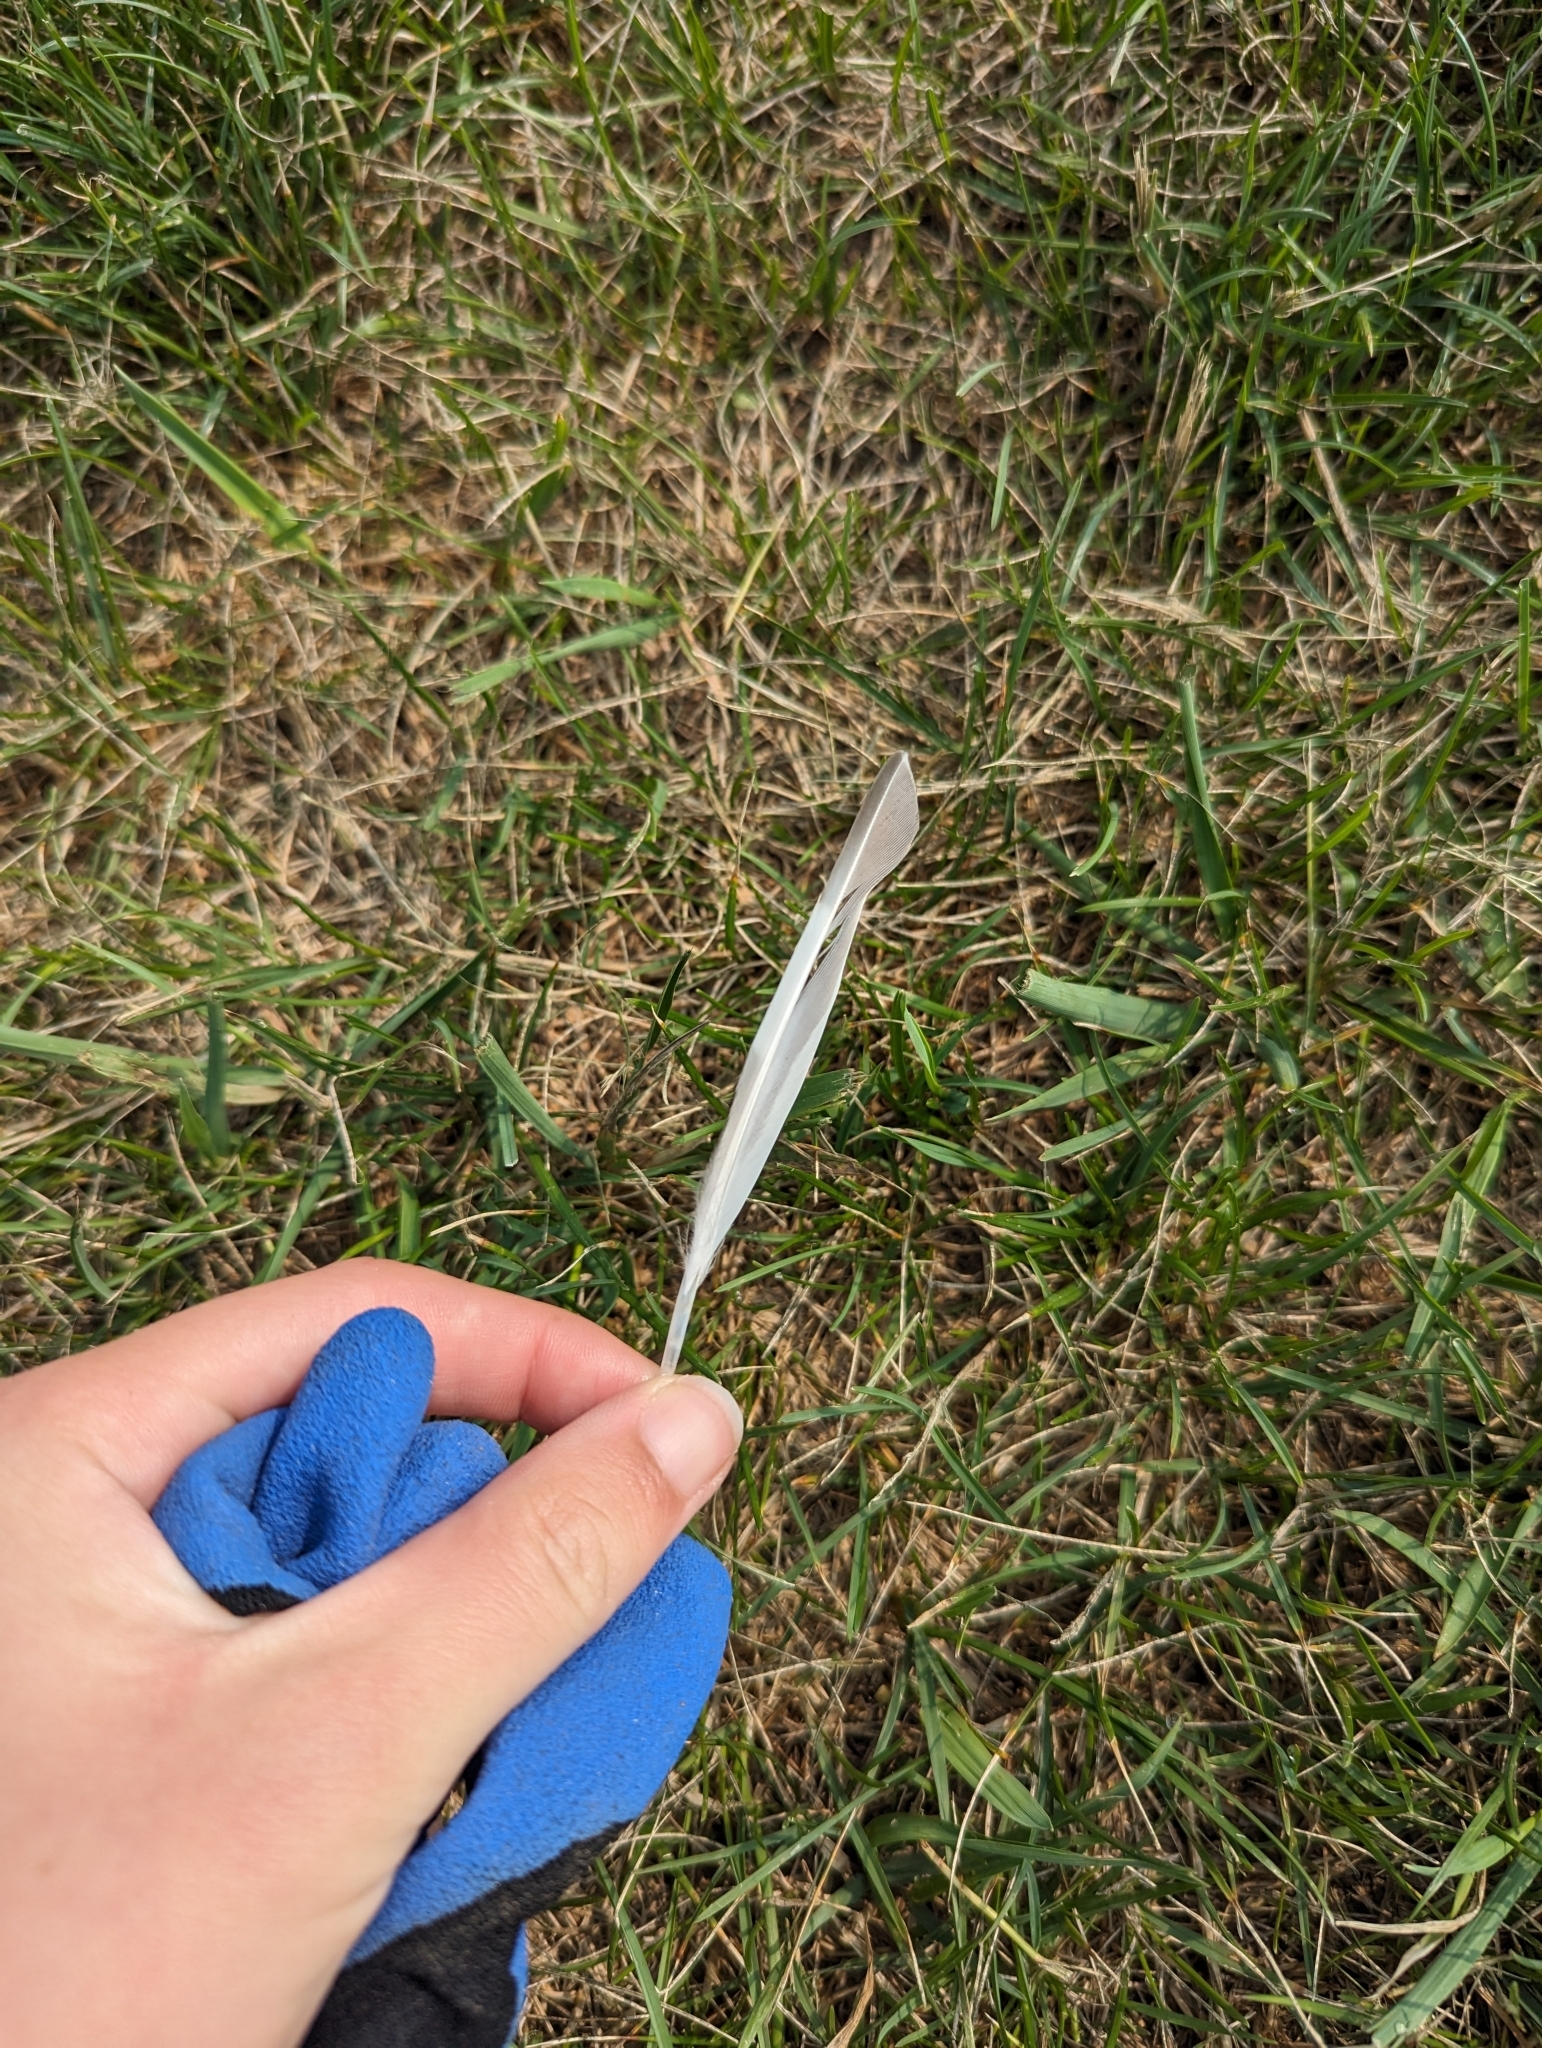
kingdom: Animalia
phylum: Chordata
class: Aves
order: Charadriiformes
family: Charadriidae
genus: Charadrius
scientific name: Charadrius vociferus
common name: Killdeer
